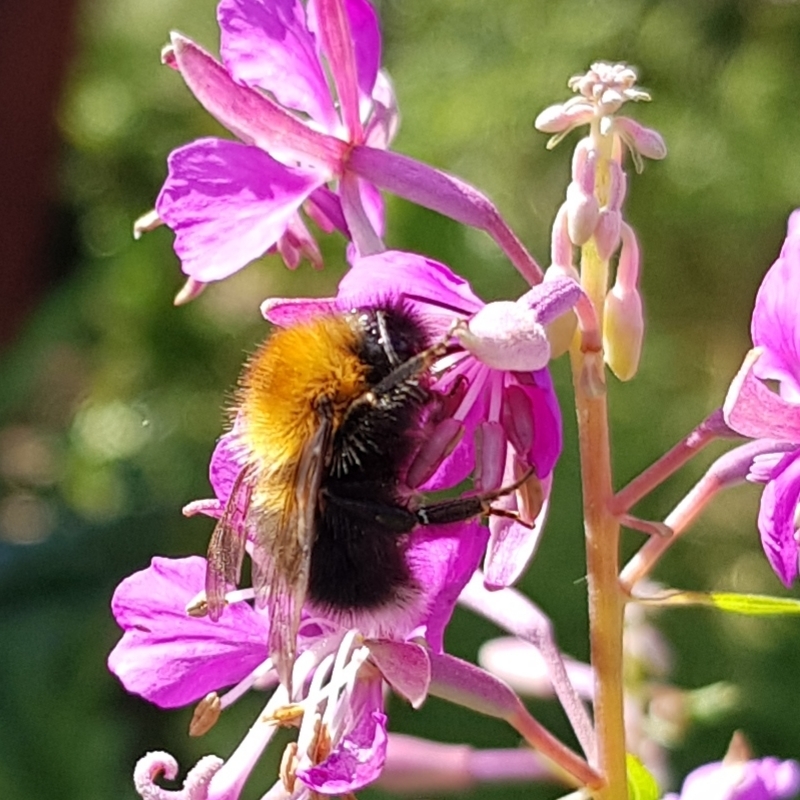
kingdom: Animalia
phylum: Arthropoda
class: Insecta
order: Hymenoptera
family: Apidae
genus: Bombus
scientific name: Bombus hypnorum
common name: New garden bumblebee
